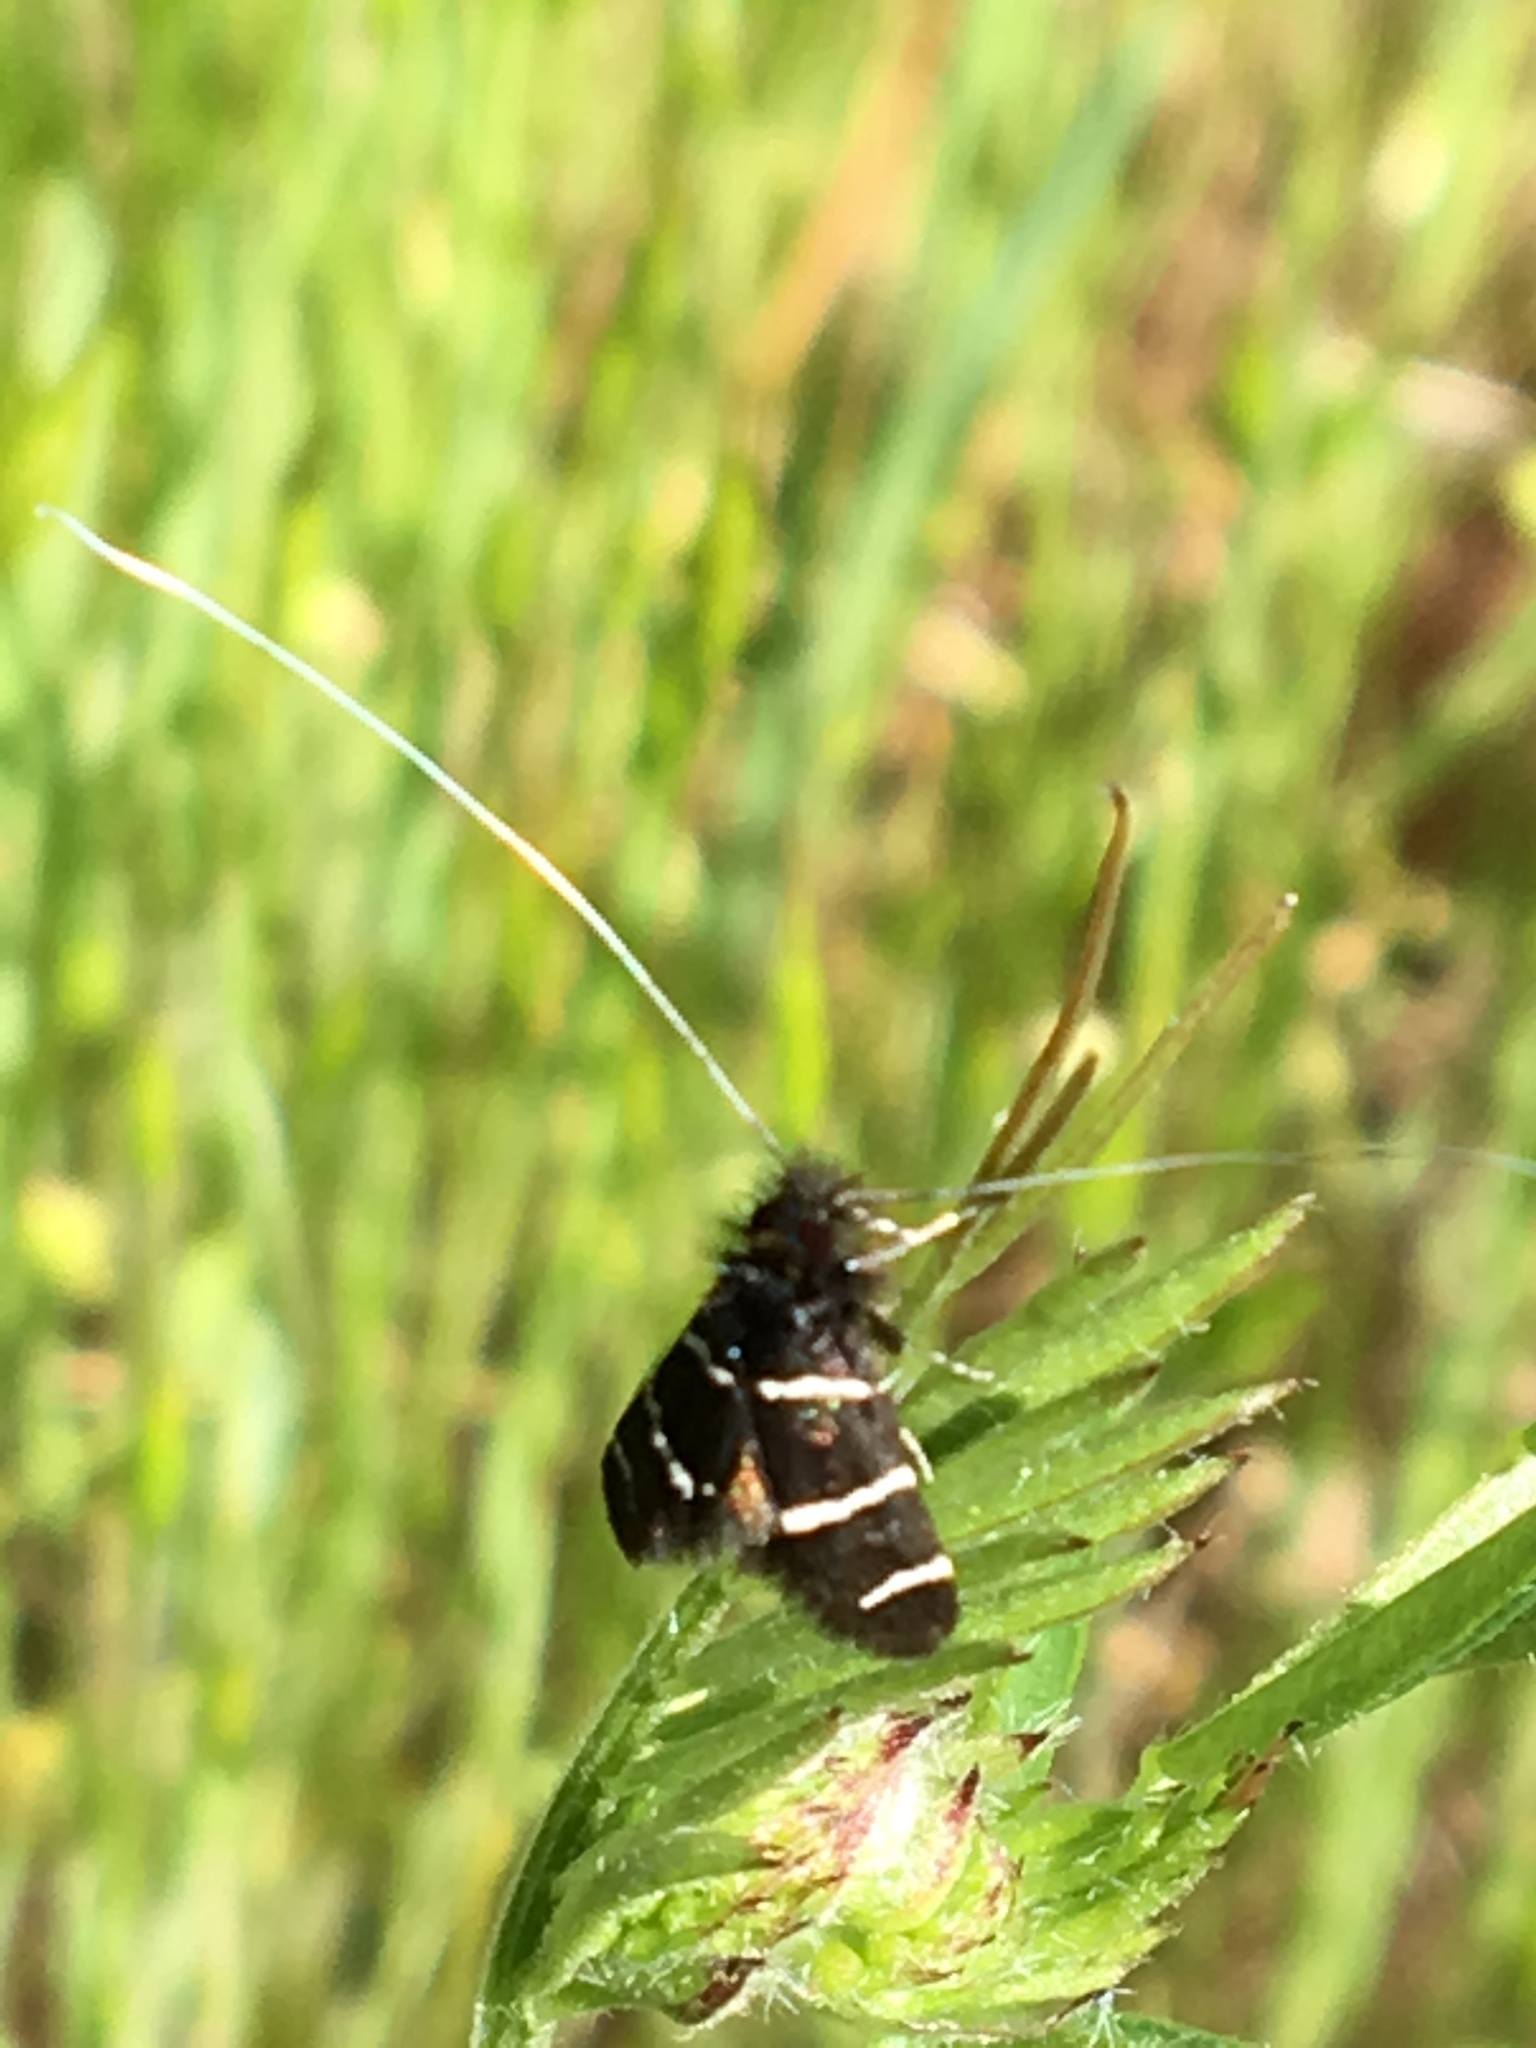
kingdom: Animalia
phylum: Arthropoda
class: Insecta
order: Lepidoptera
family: Adelidae
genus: Adela
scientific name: Adela trigrapha
